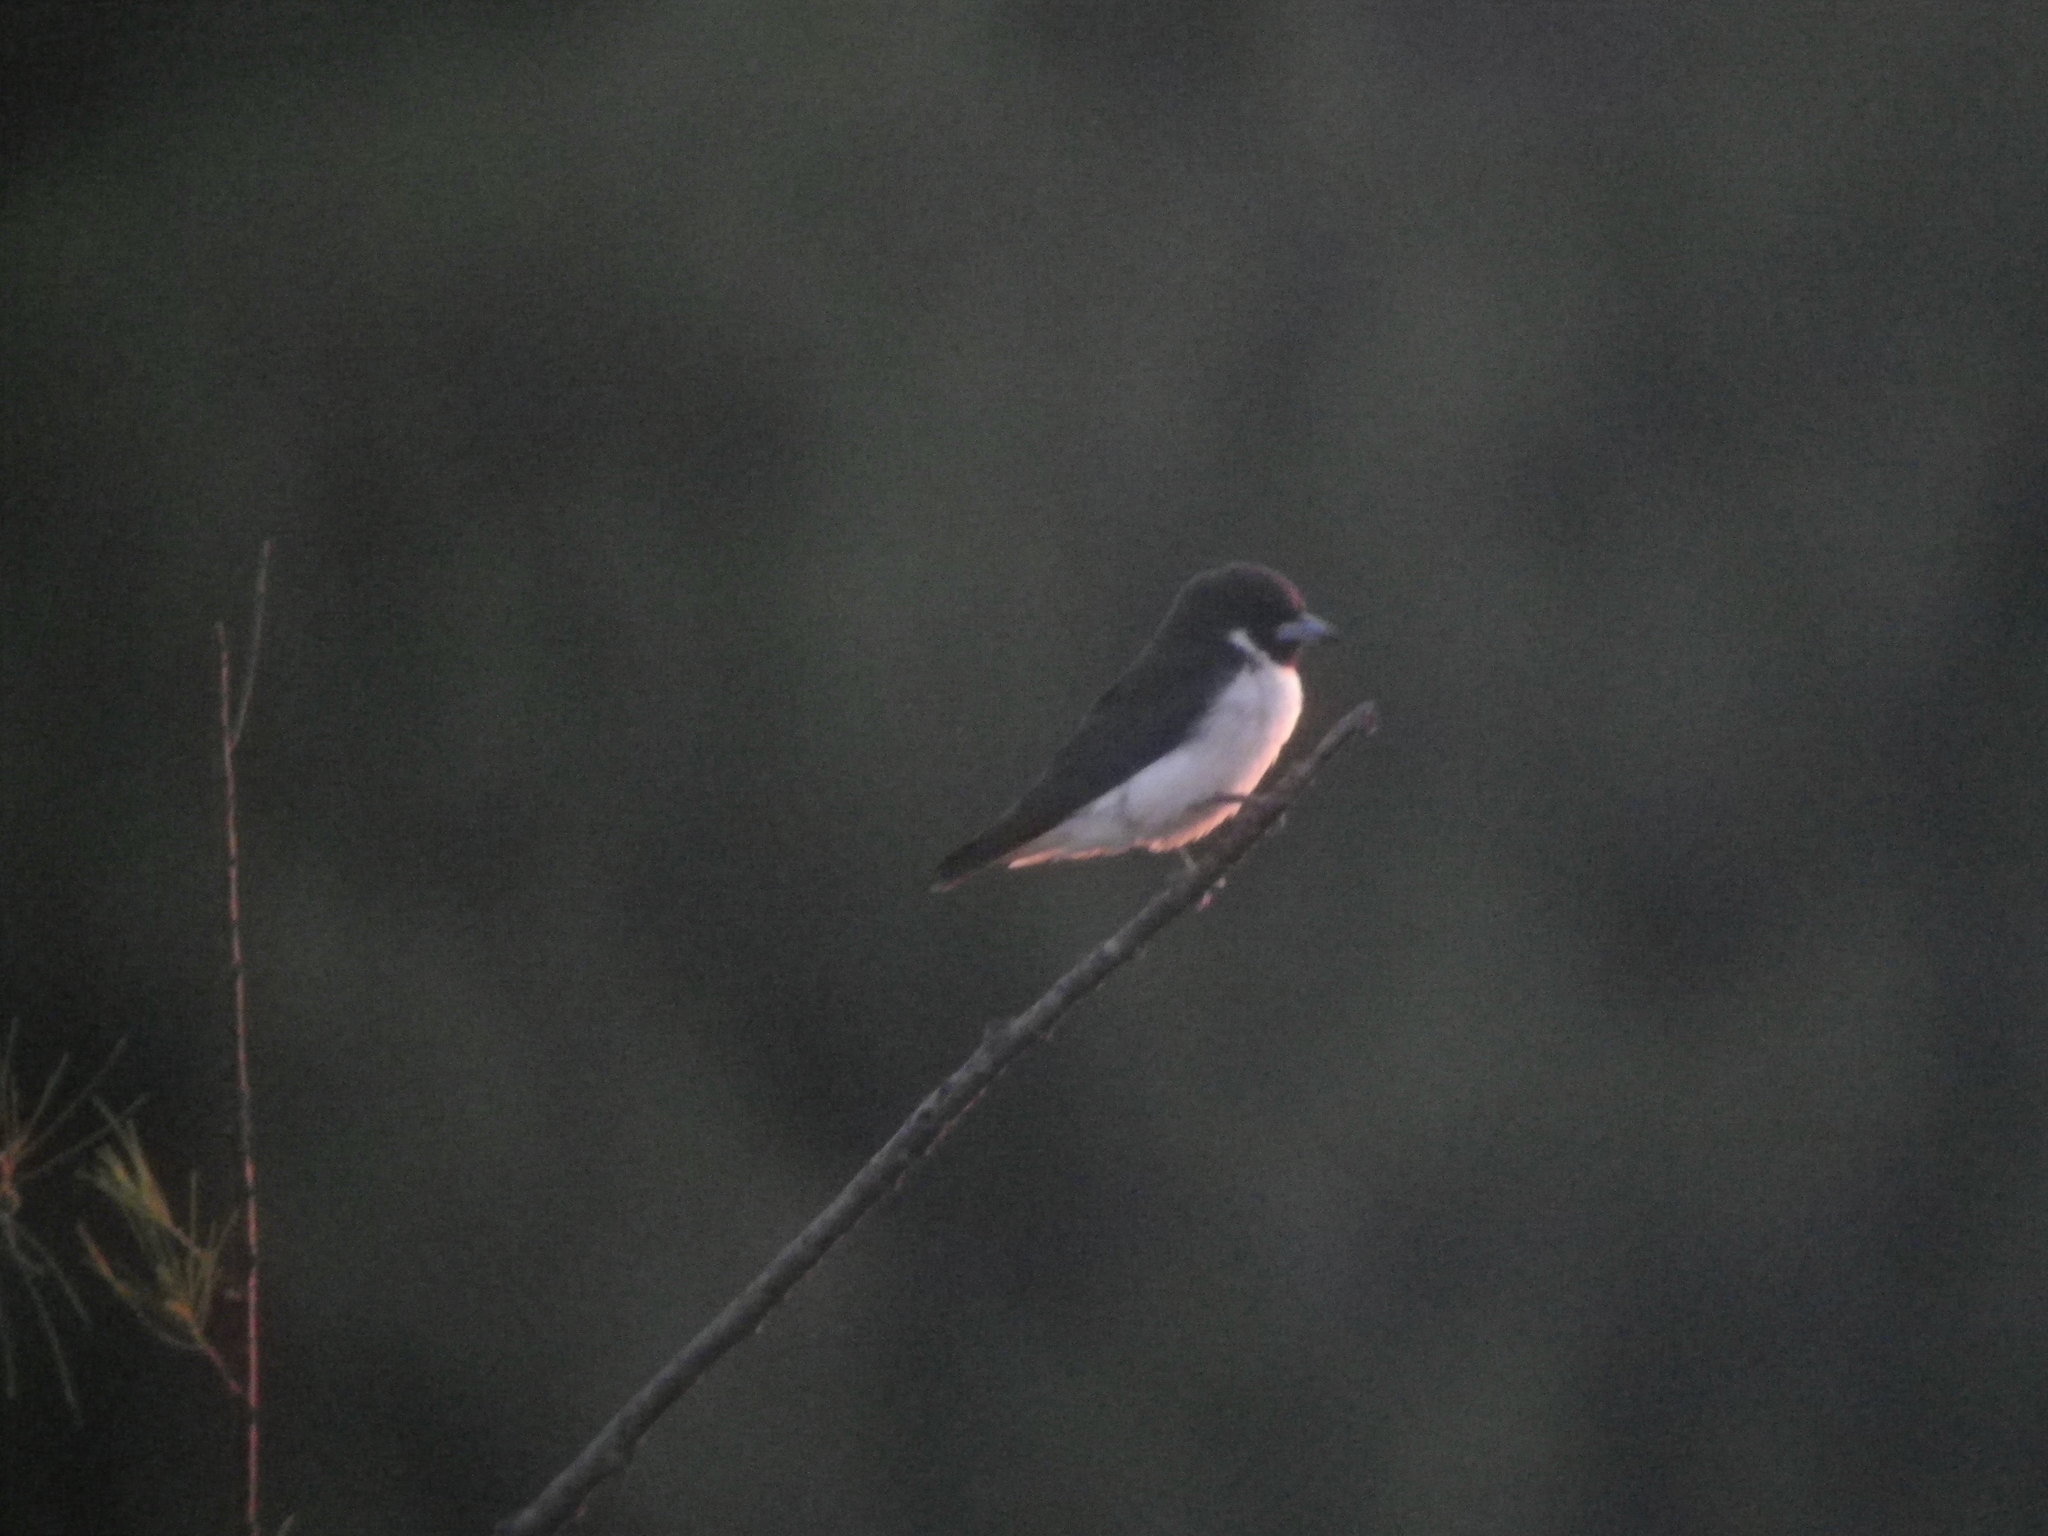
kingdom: Animalia
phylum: Chordata
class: Aves
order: Passeriformes
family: Artamidae
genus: Artamus
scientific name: Artamus mentalis
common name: Fiji woodswallow
